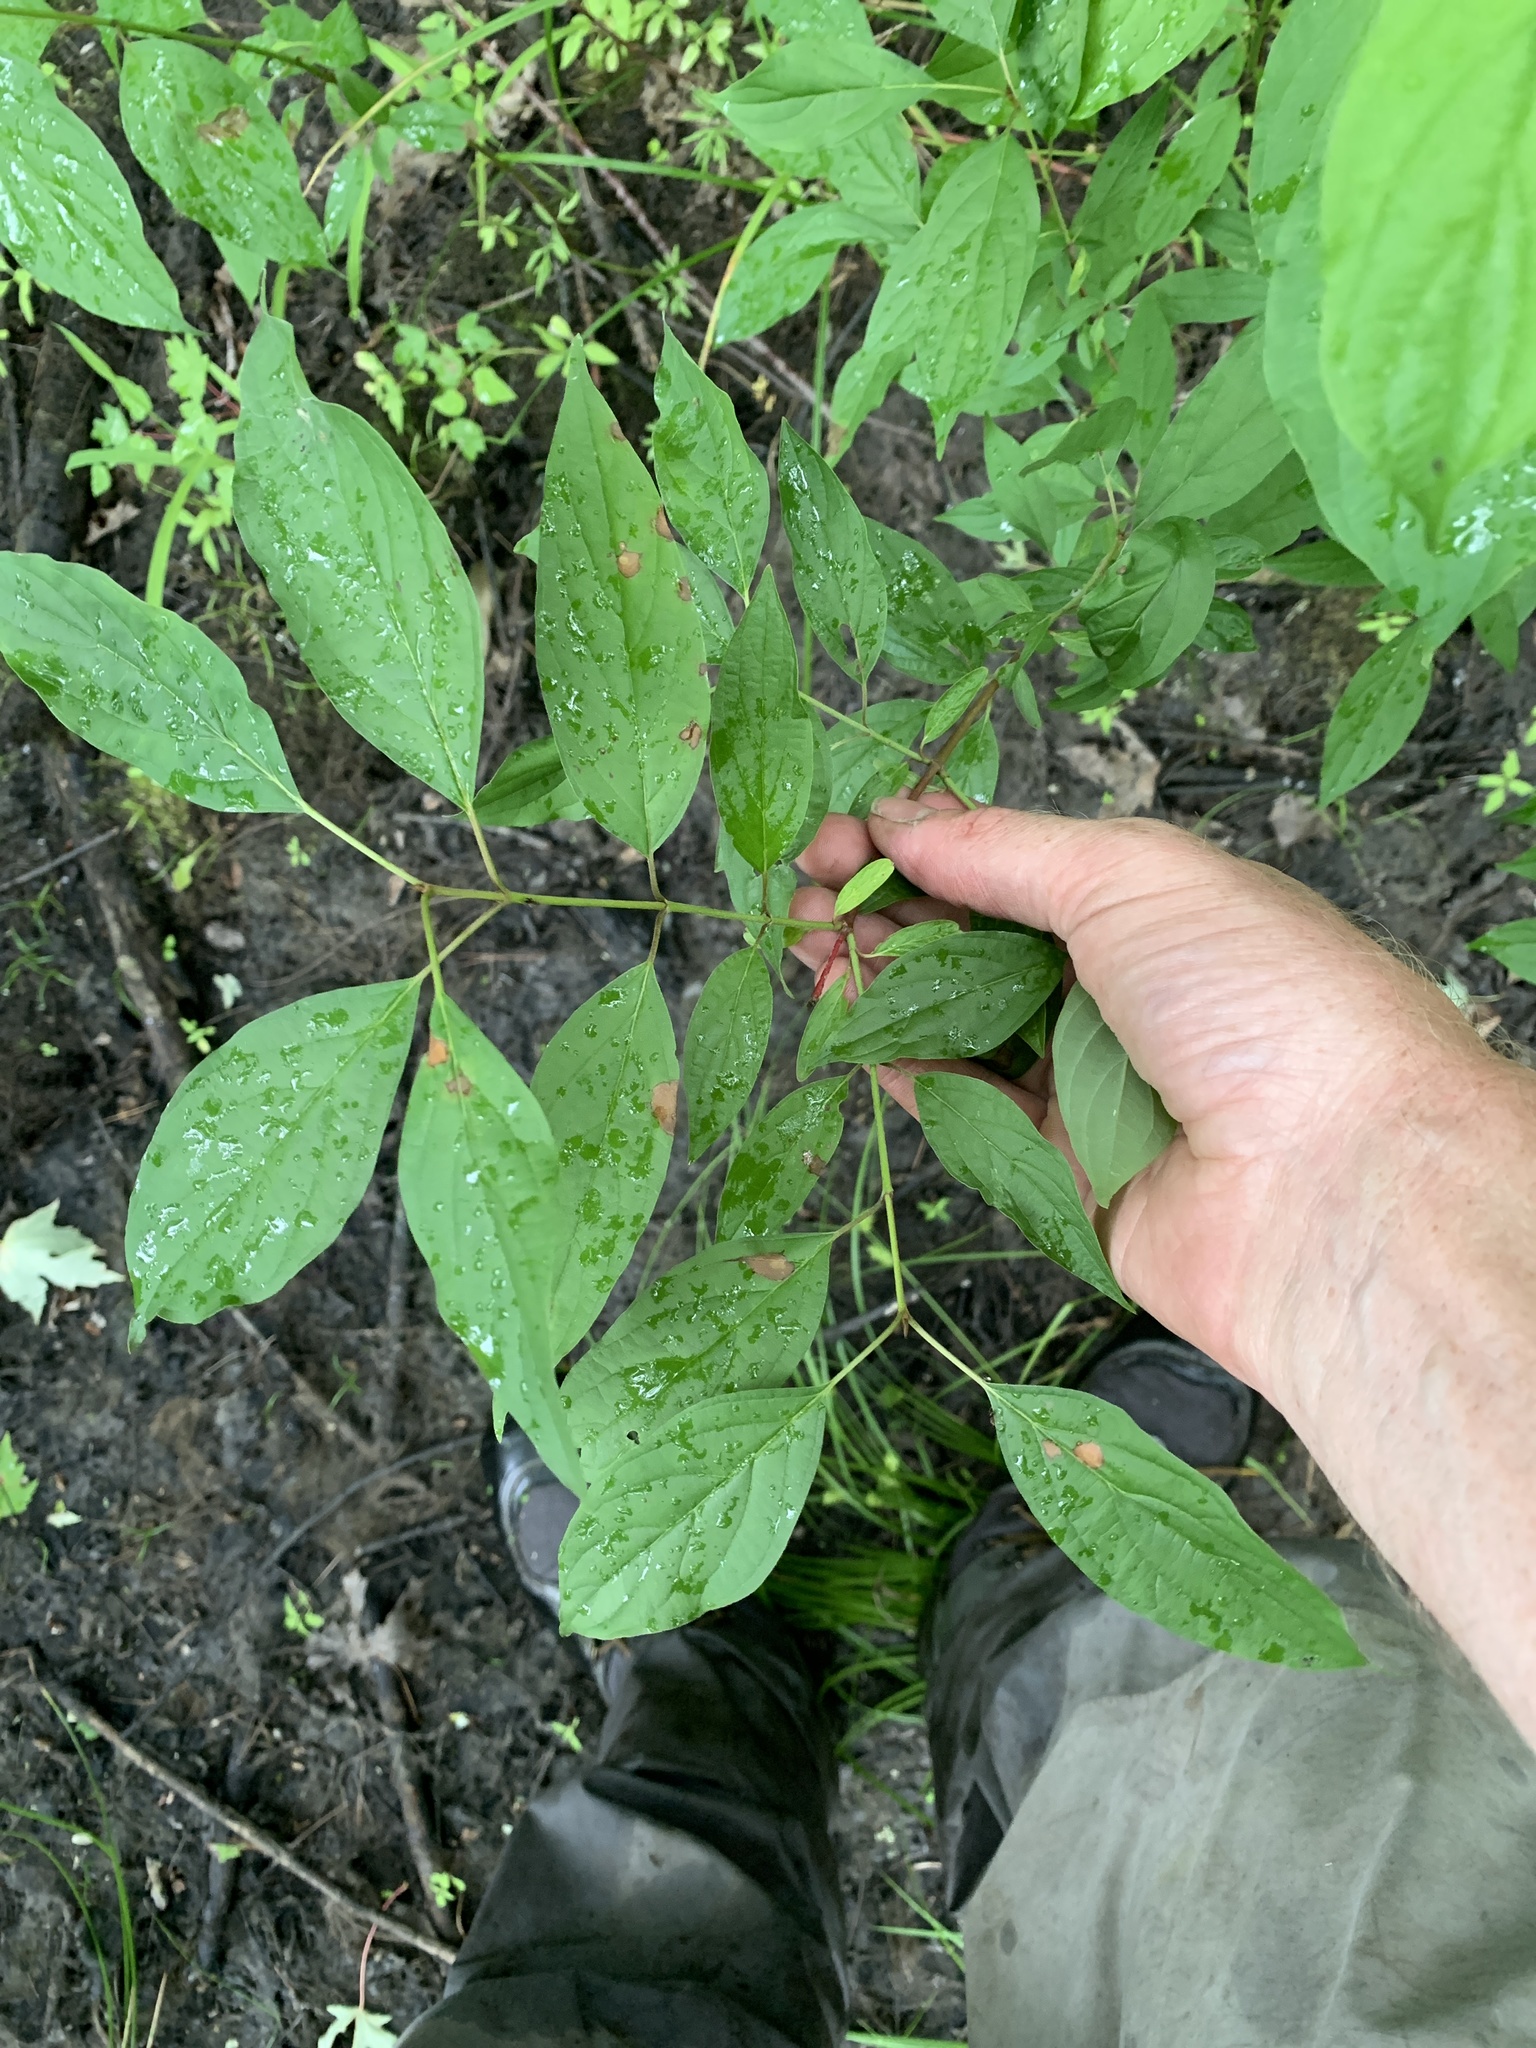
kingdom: Plantae
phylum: Tracheophyta
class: Magnoliopsida
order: Cornales
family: Cornaceae
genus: Cornus
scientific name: Cornus racemosa
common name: Panicled dogwood
